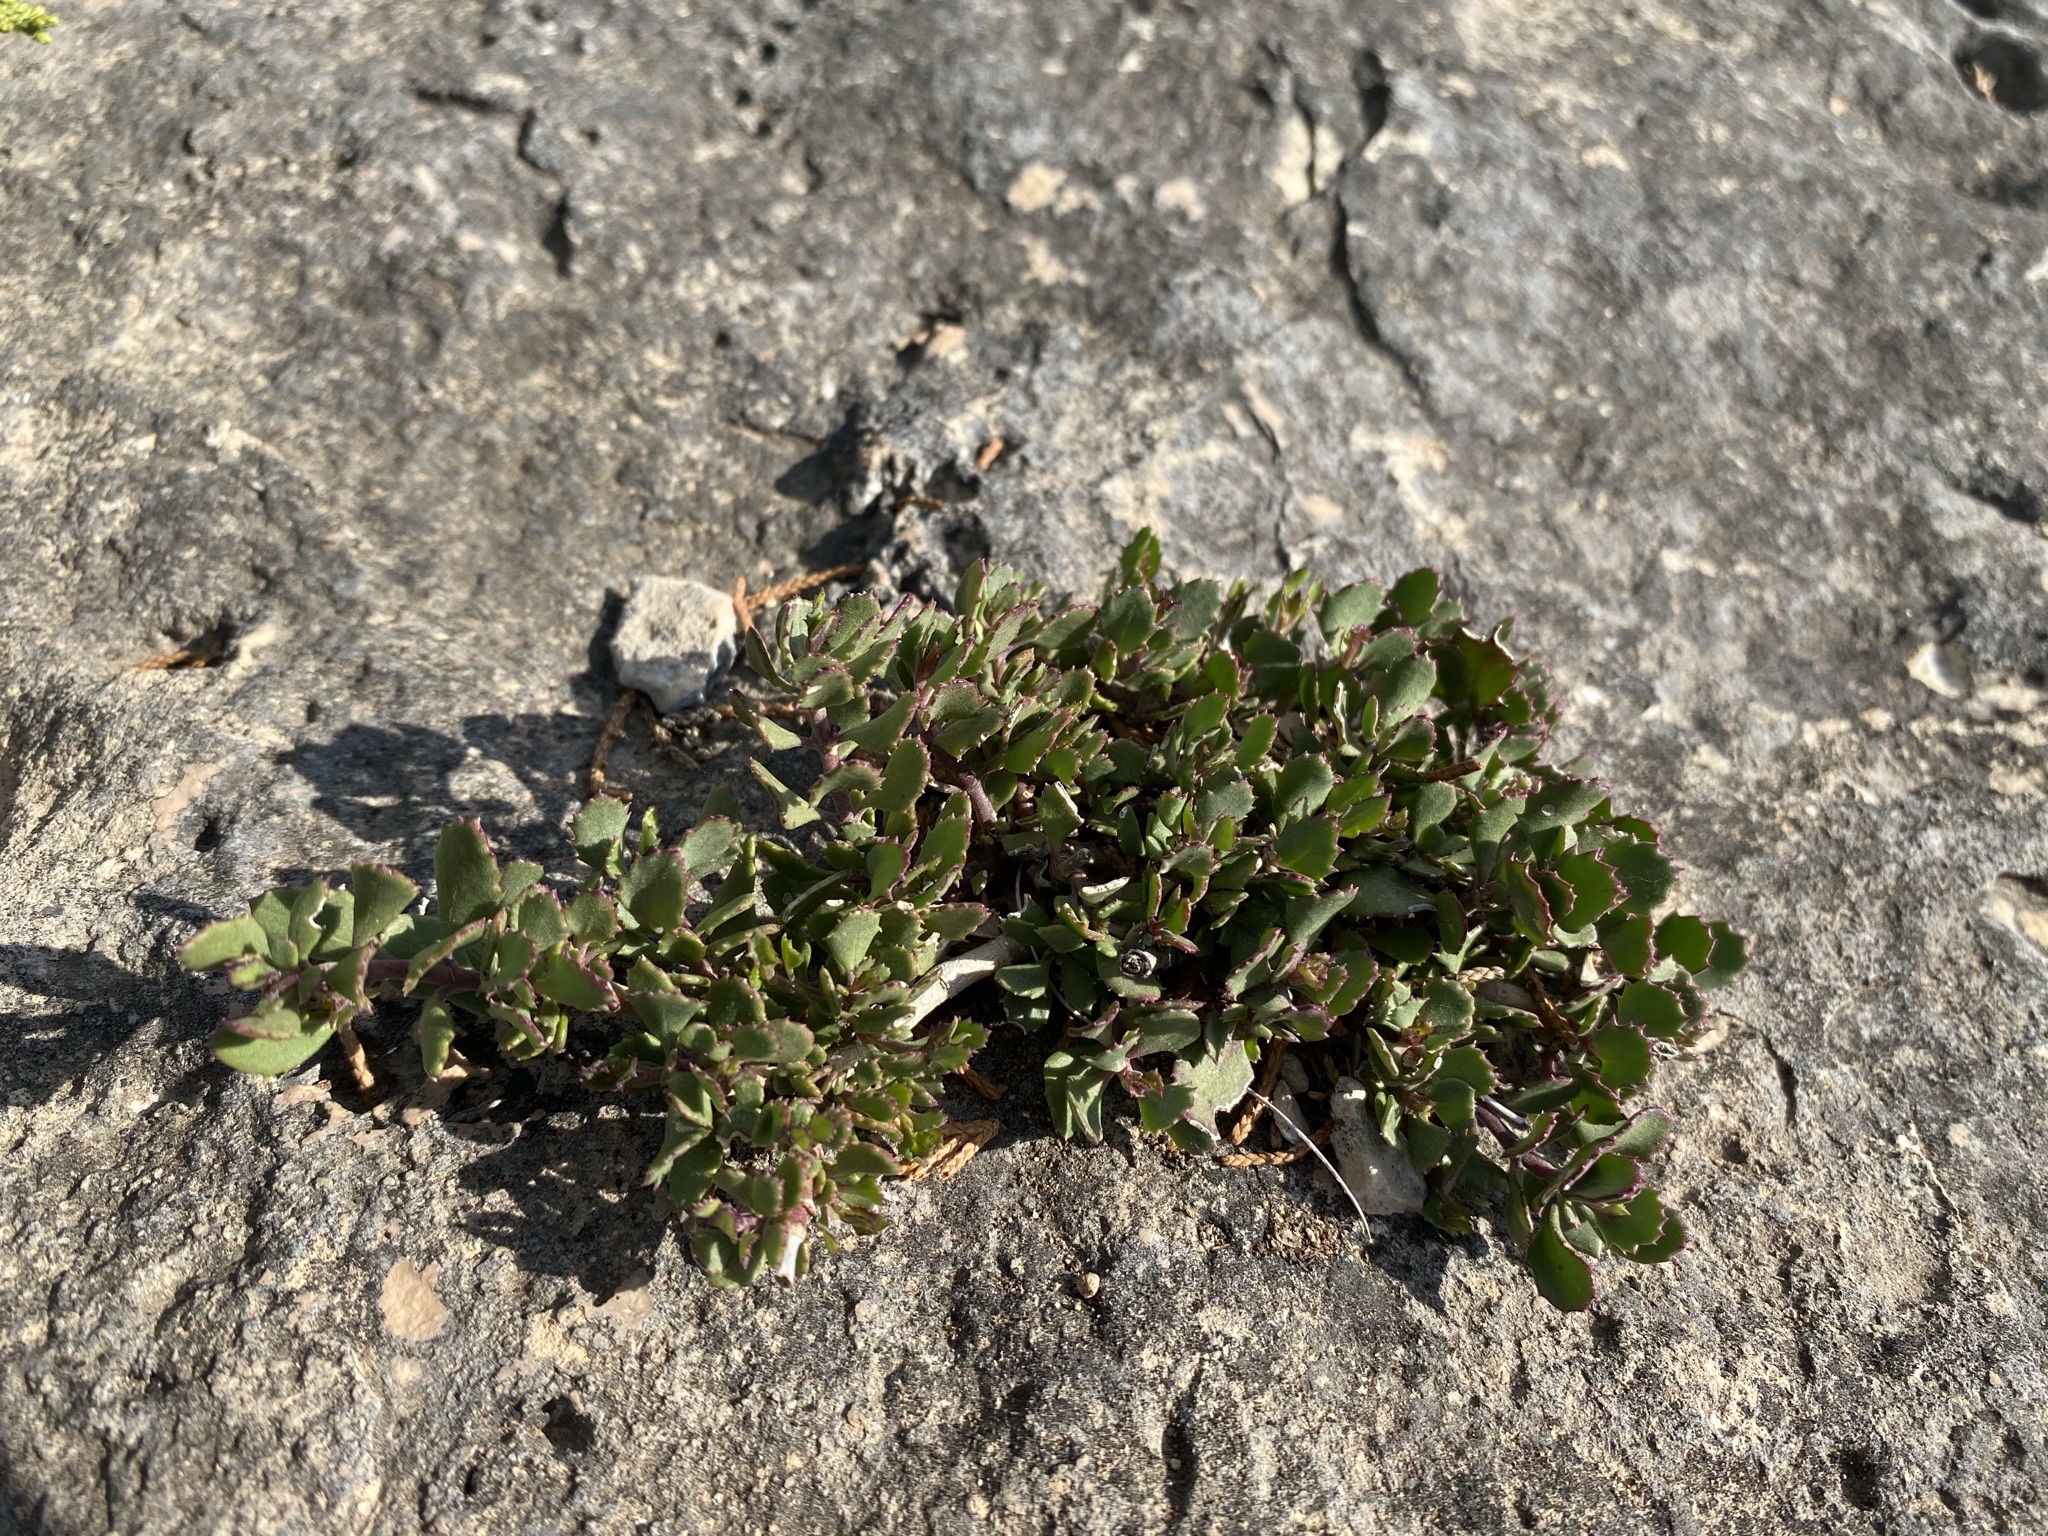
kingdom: Plantae
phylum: Tracheophyta
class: Magnoliopsida
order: Lamiales
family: Plantaginaceae
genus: Penstemon
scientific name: Penstemon baccharifolius
